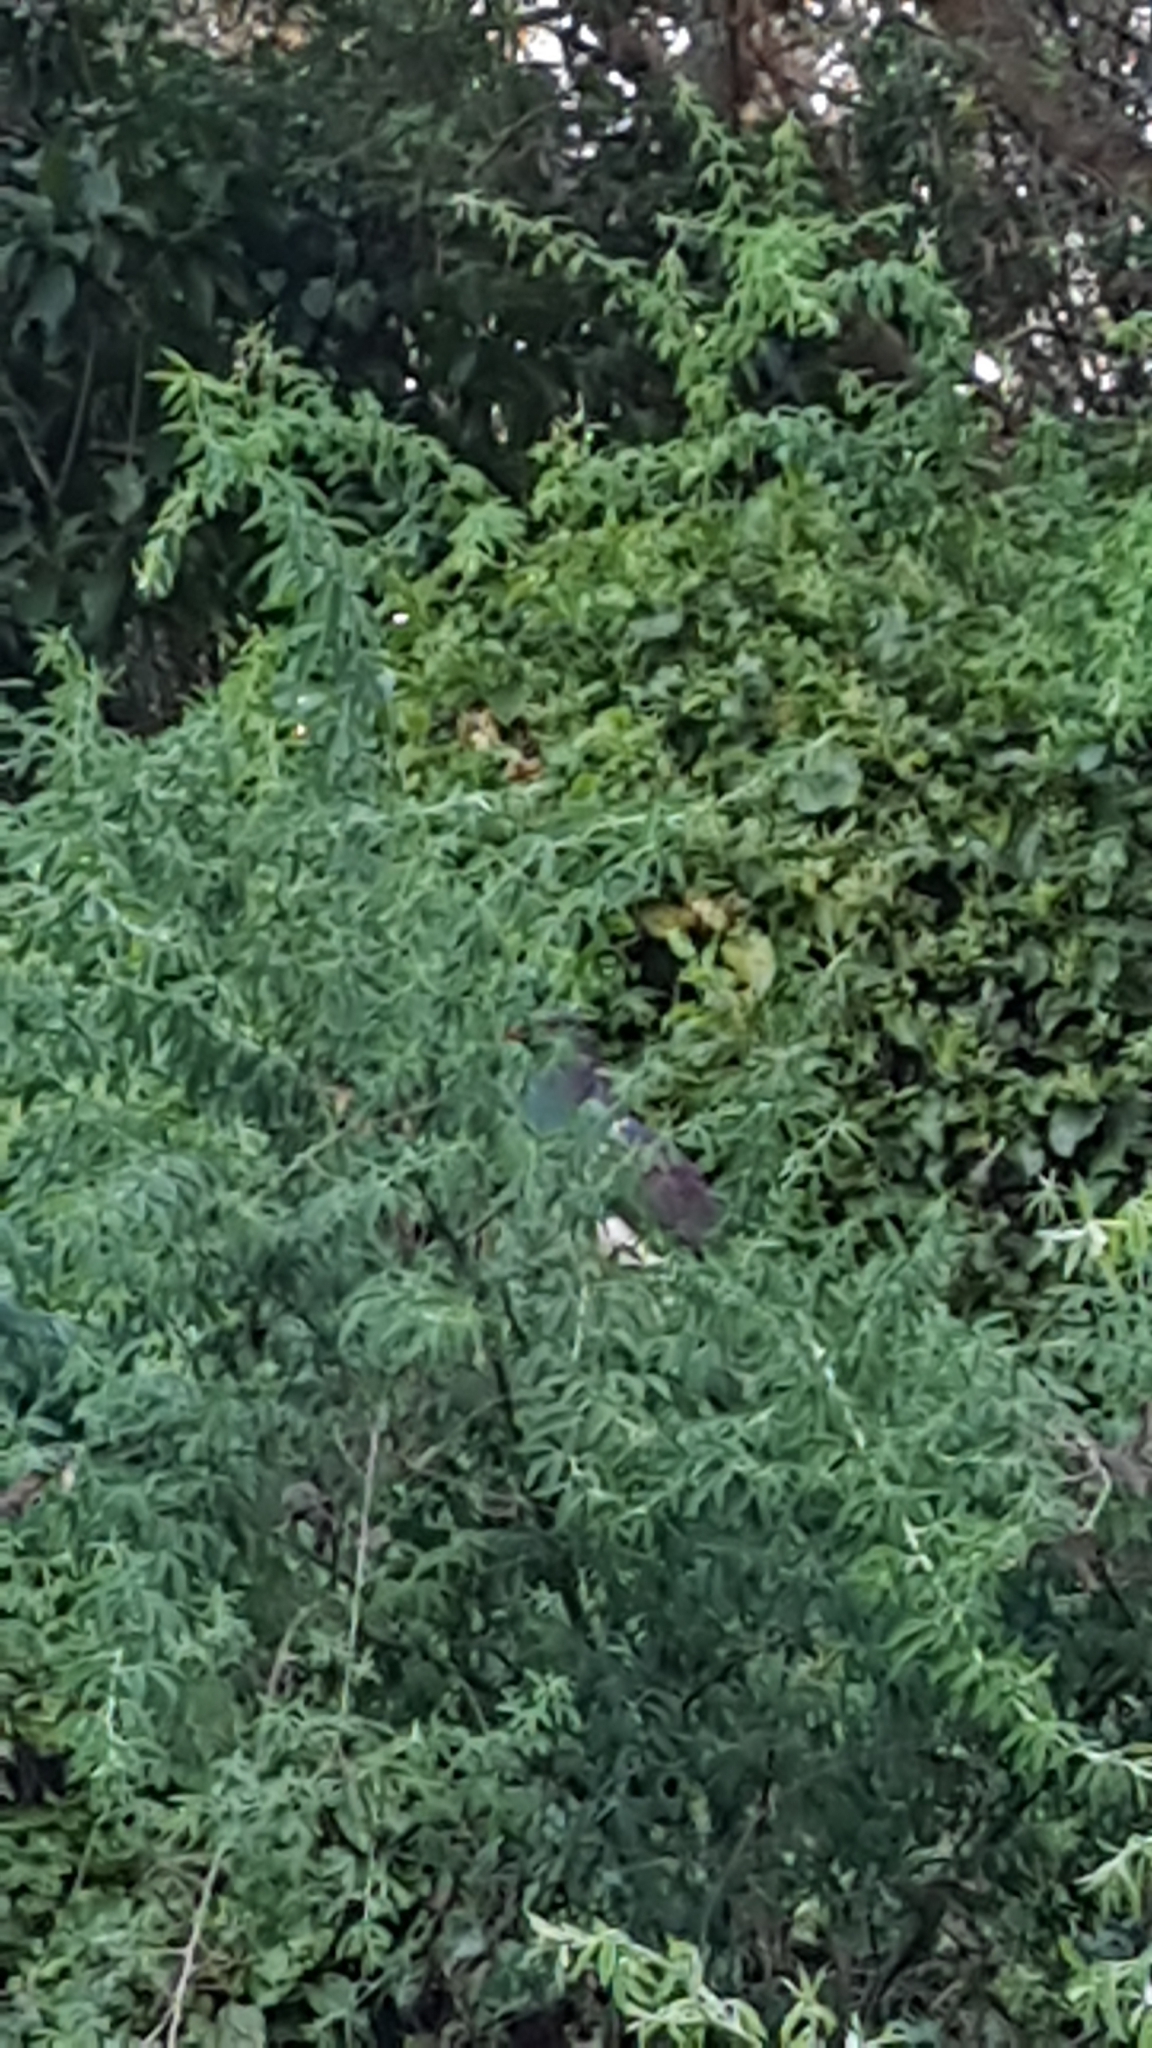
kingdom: Animalia
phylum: Chordata
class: Aves
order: Columbiformes
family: Columbidae
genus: Hemiphaga
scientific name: Hemiphaga novaeseelandiae
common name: New zealand pigeon
